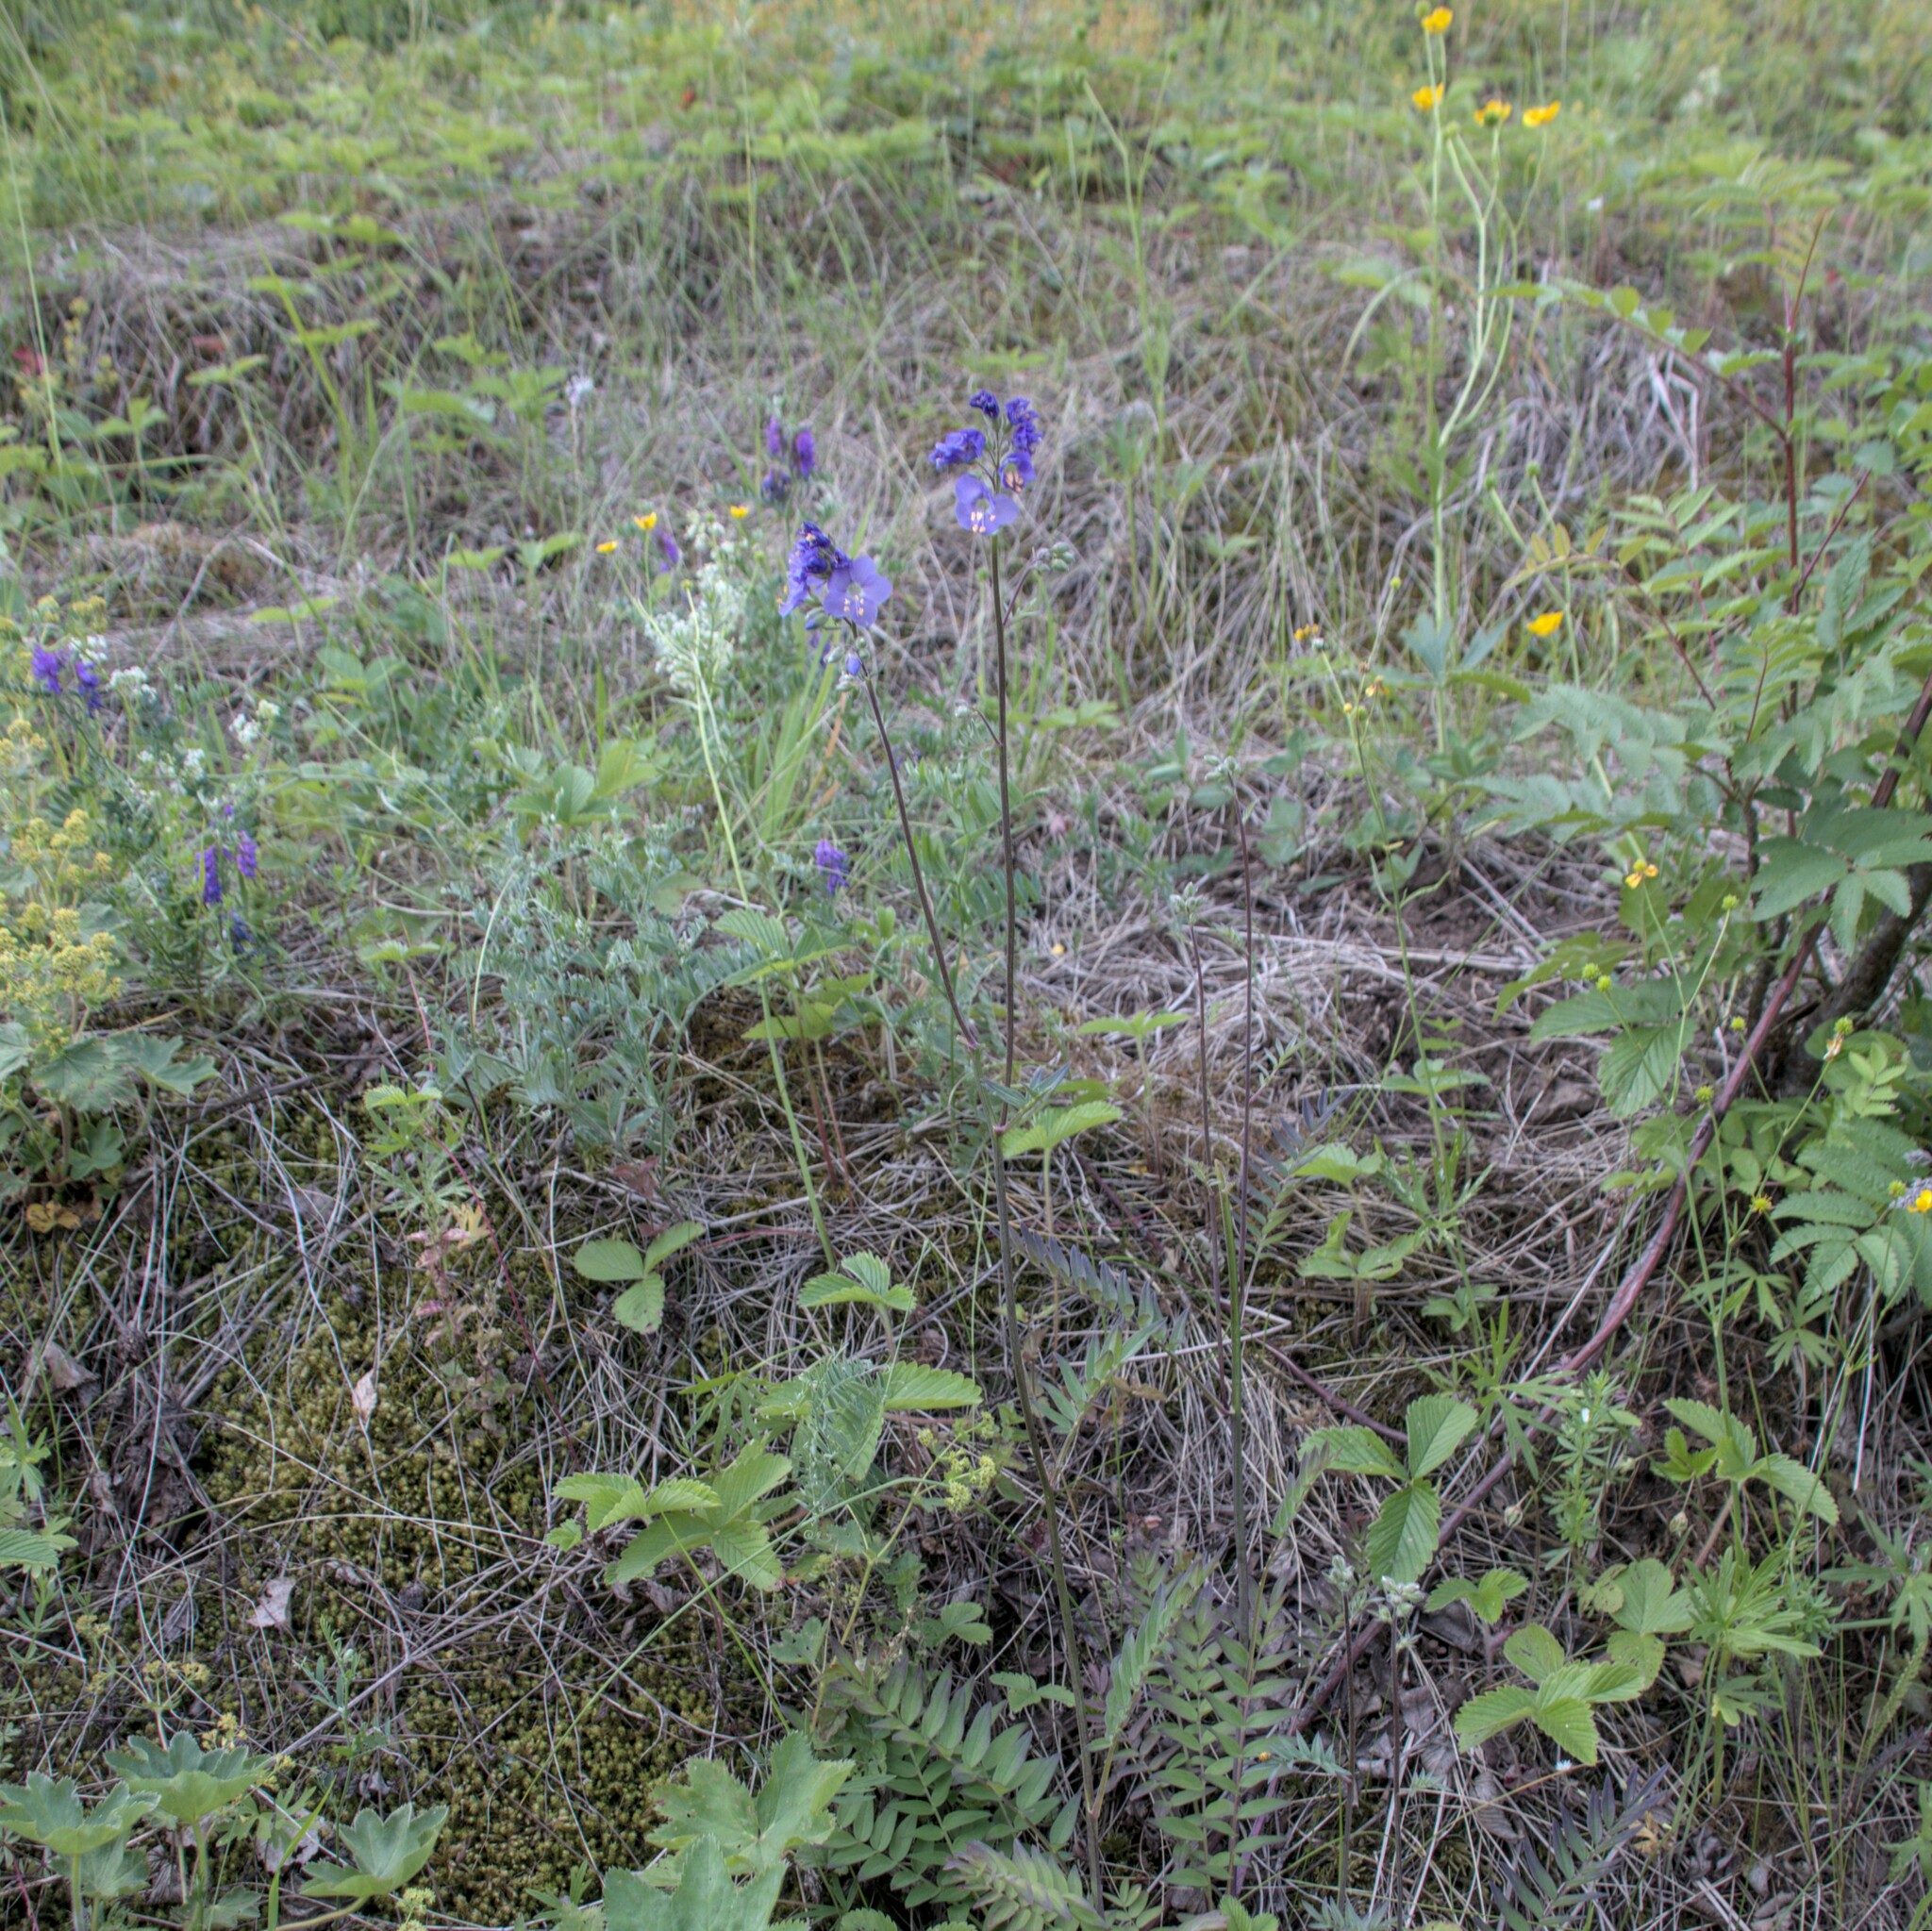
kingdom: Plantae
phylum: Tracheophyta
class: Magnoliopsida
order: Ericales
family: Polemoniaceae
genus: Polemonium
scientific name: Polemonium caeruleum
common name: Jacob's-ladder
